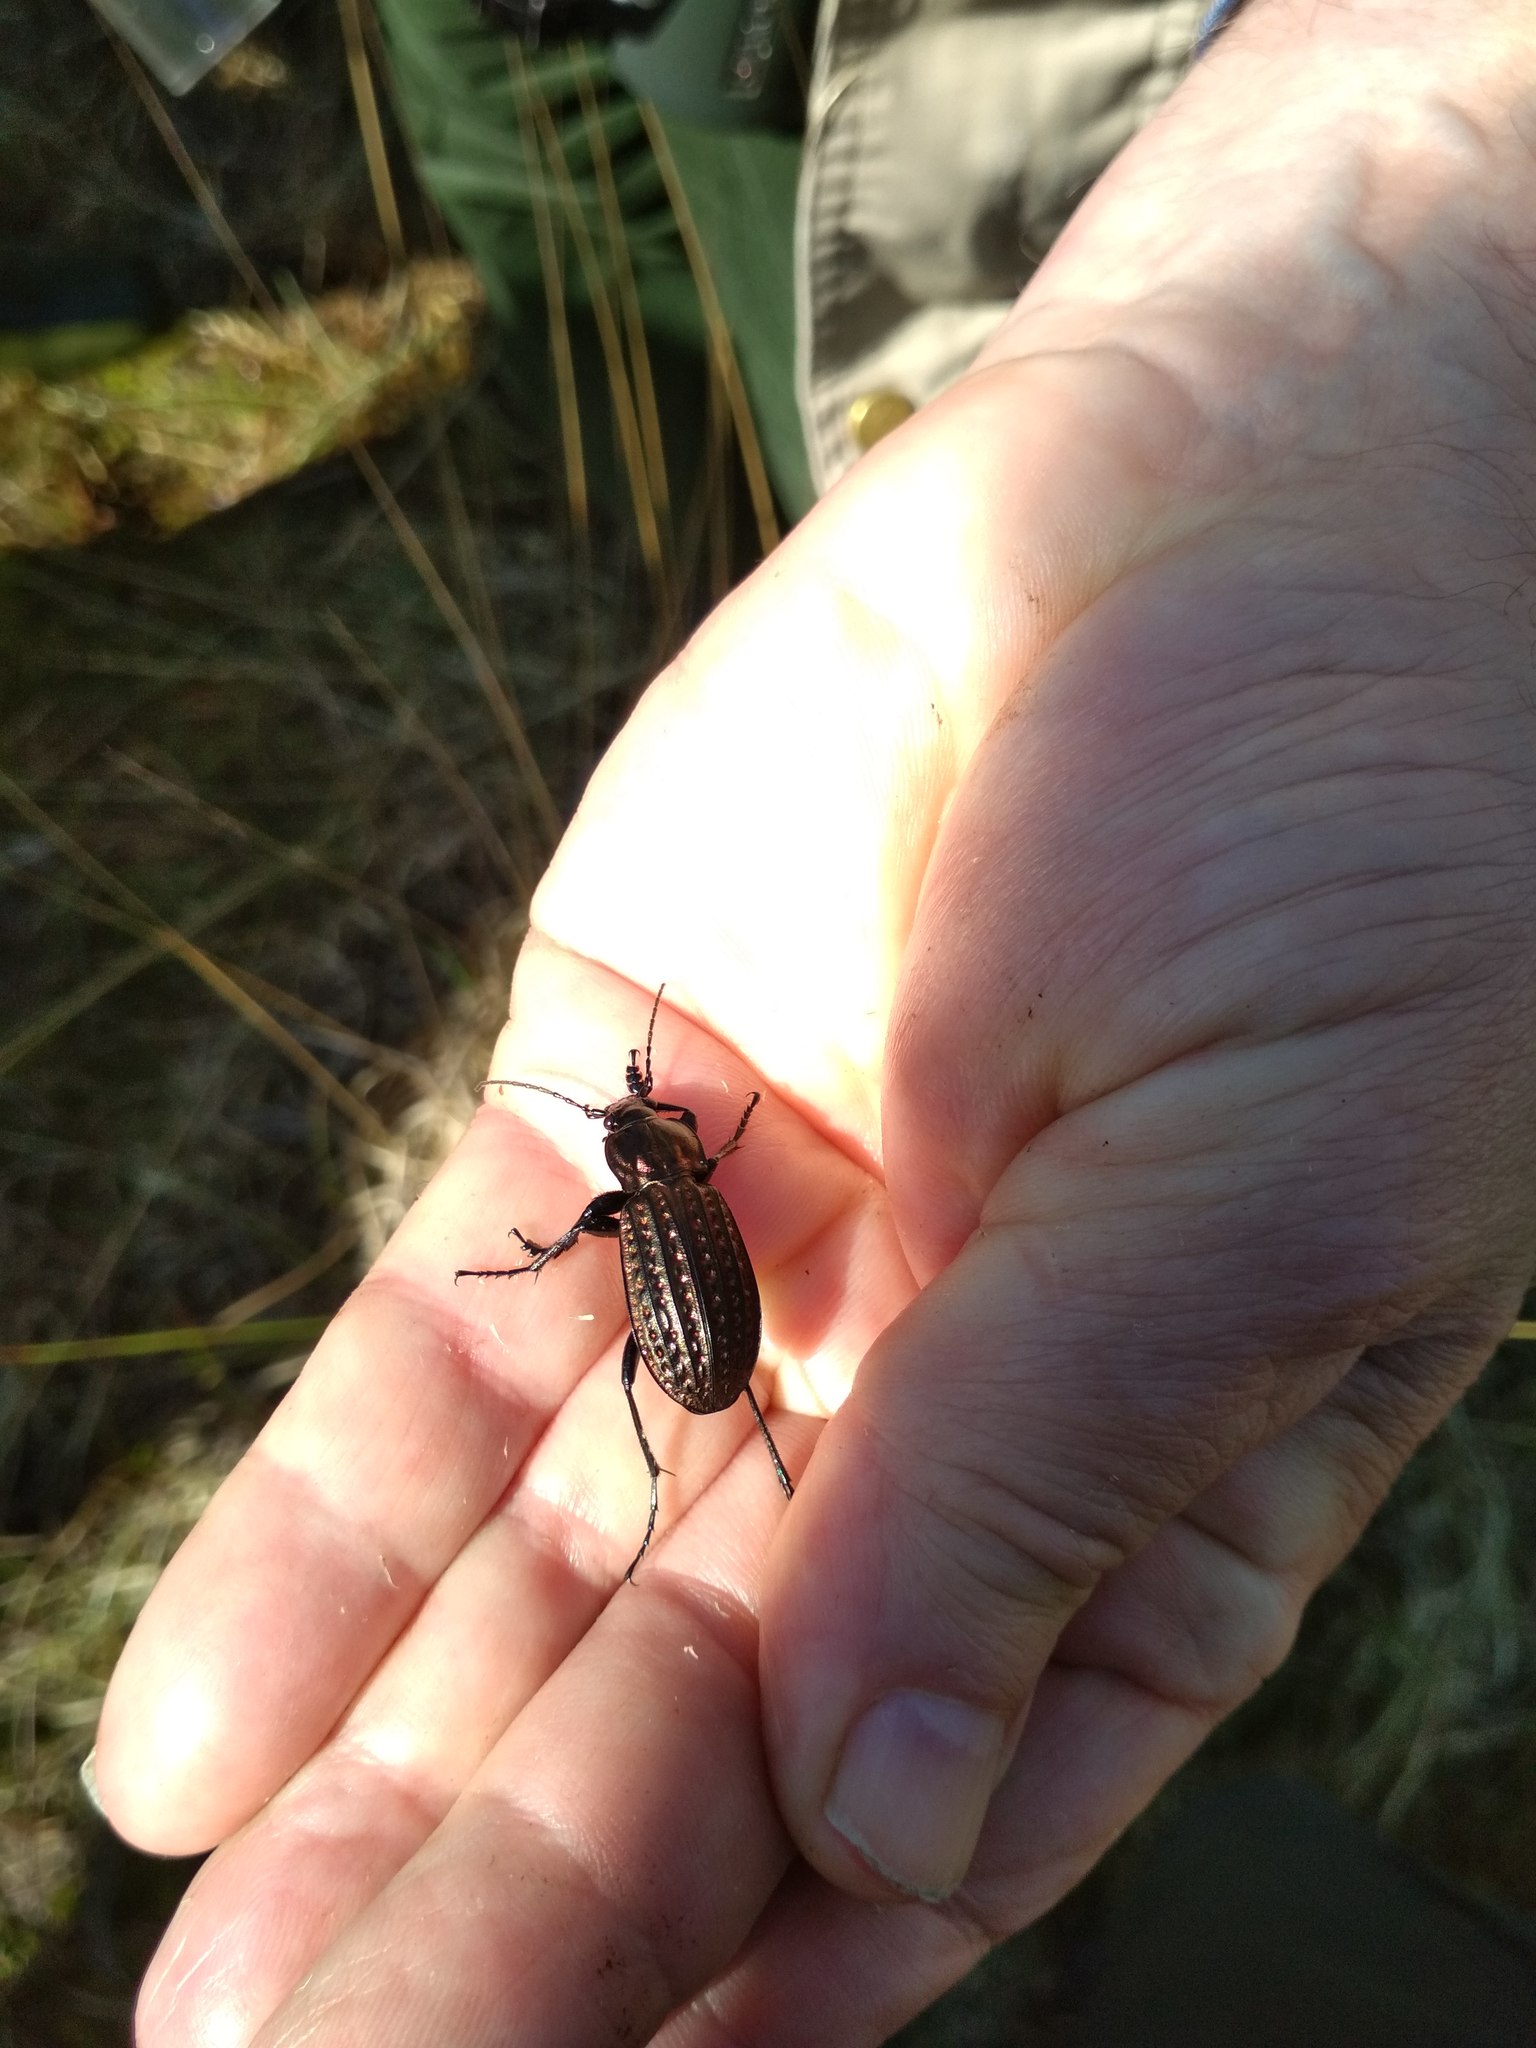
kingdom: Animalia
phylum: Arthropoda
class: Insecta
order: Coleoptera
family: Carabidae
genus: Carabus
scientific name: Carabus clatratus
